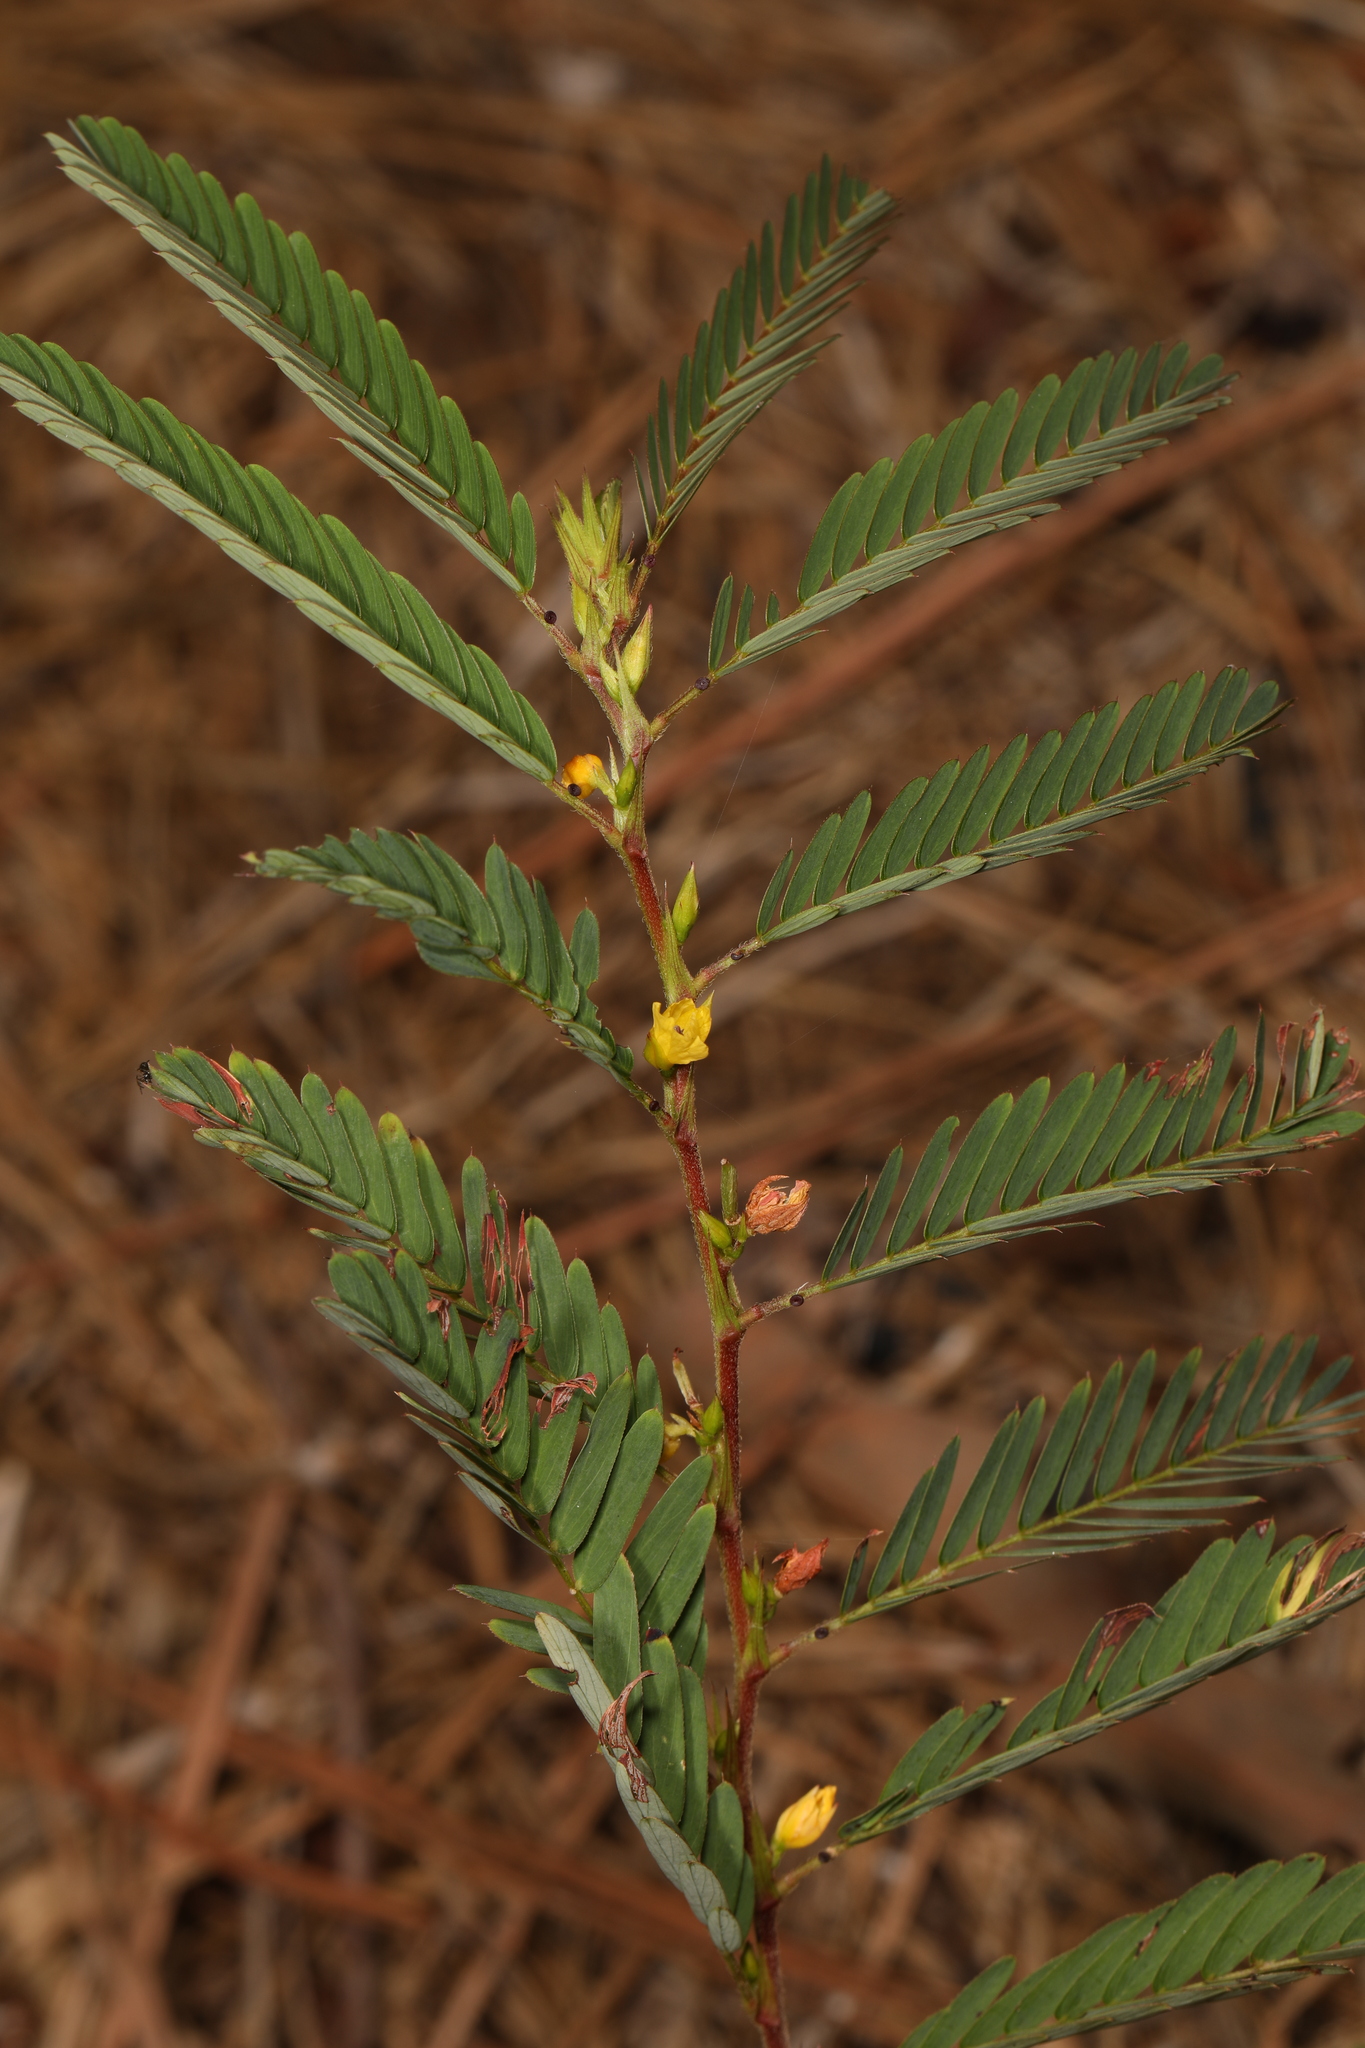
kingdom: Plantae
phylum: Tracheophyta
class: Magnoliopsida
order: Fabales
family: Fabaceae
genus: Chamaecrista
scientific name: Chamaecrista nictitans
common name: Sensitive cassia
